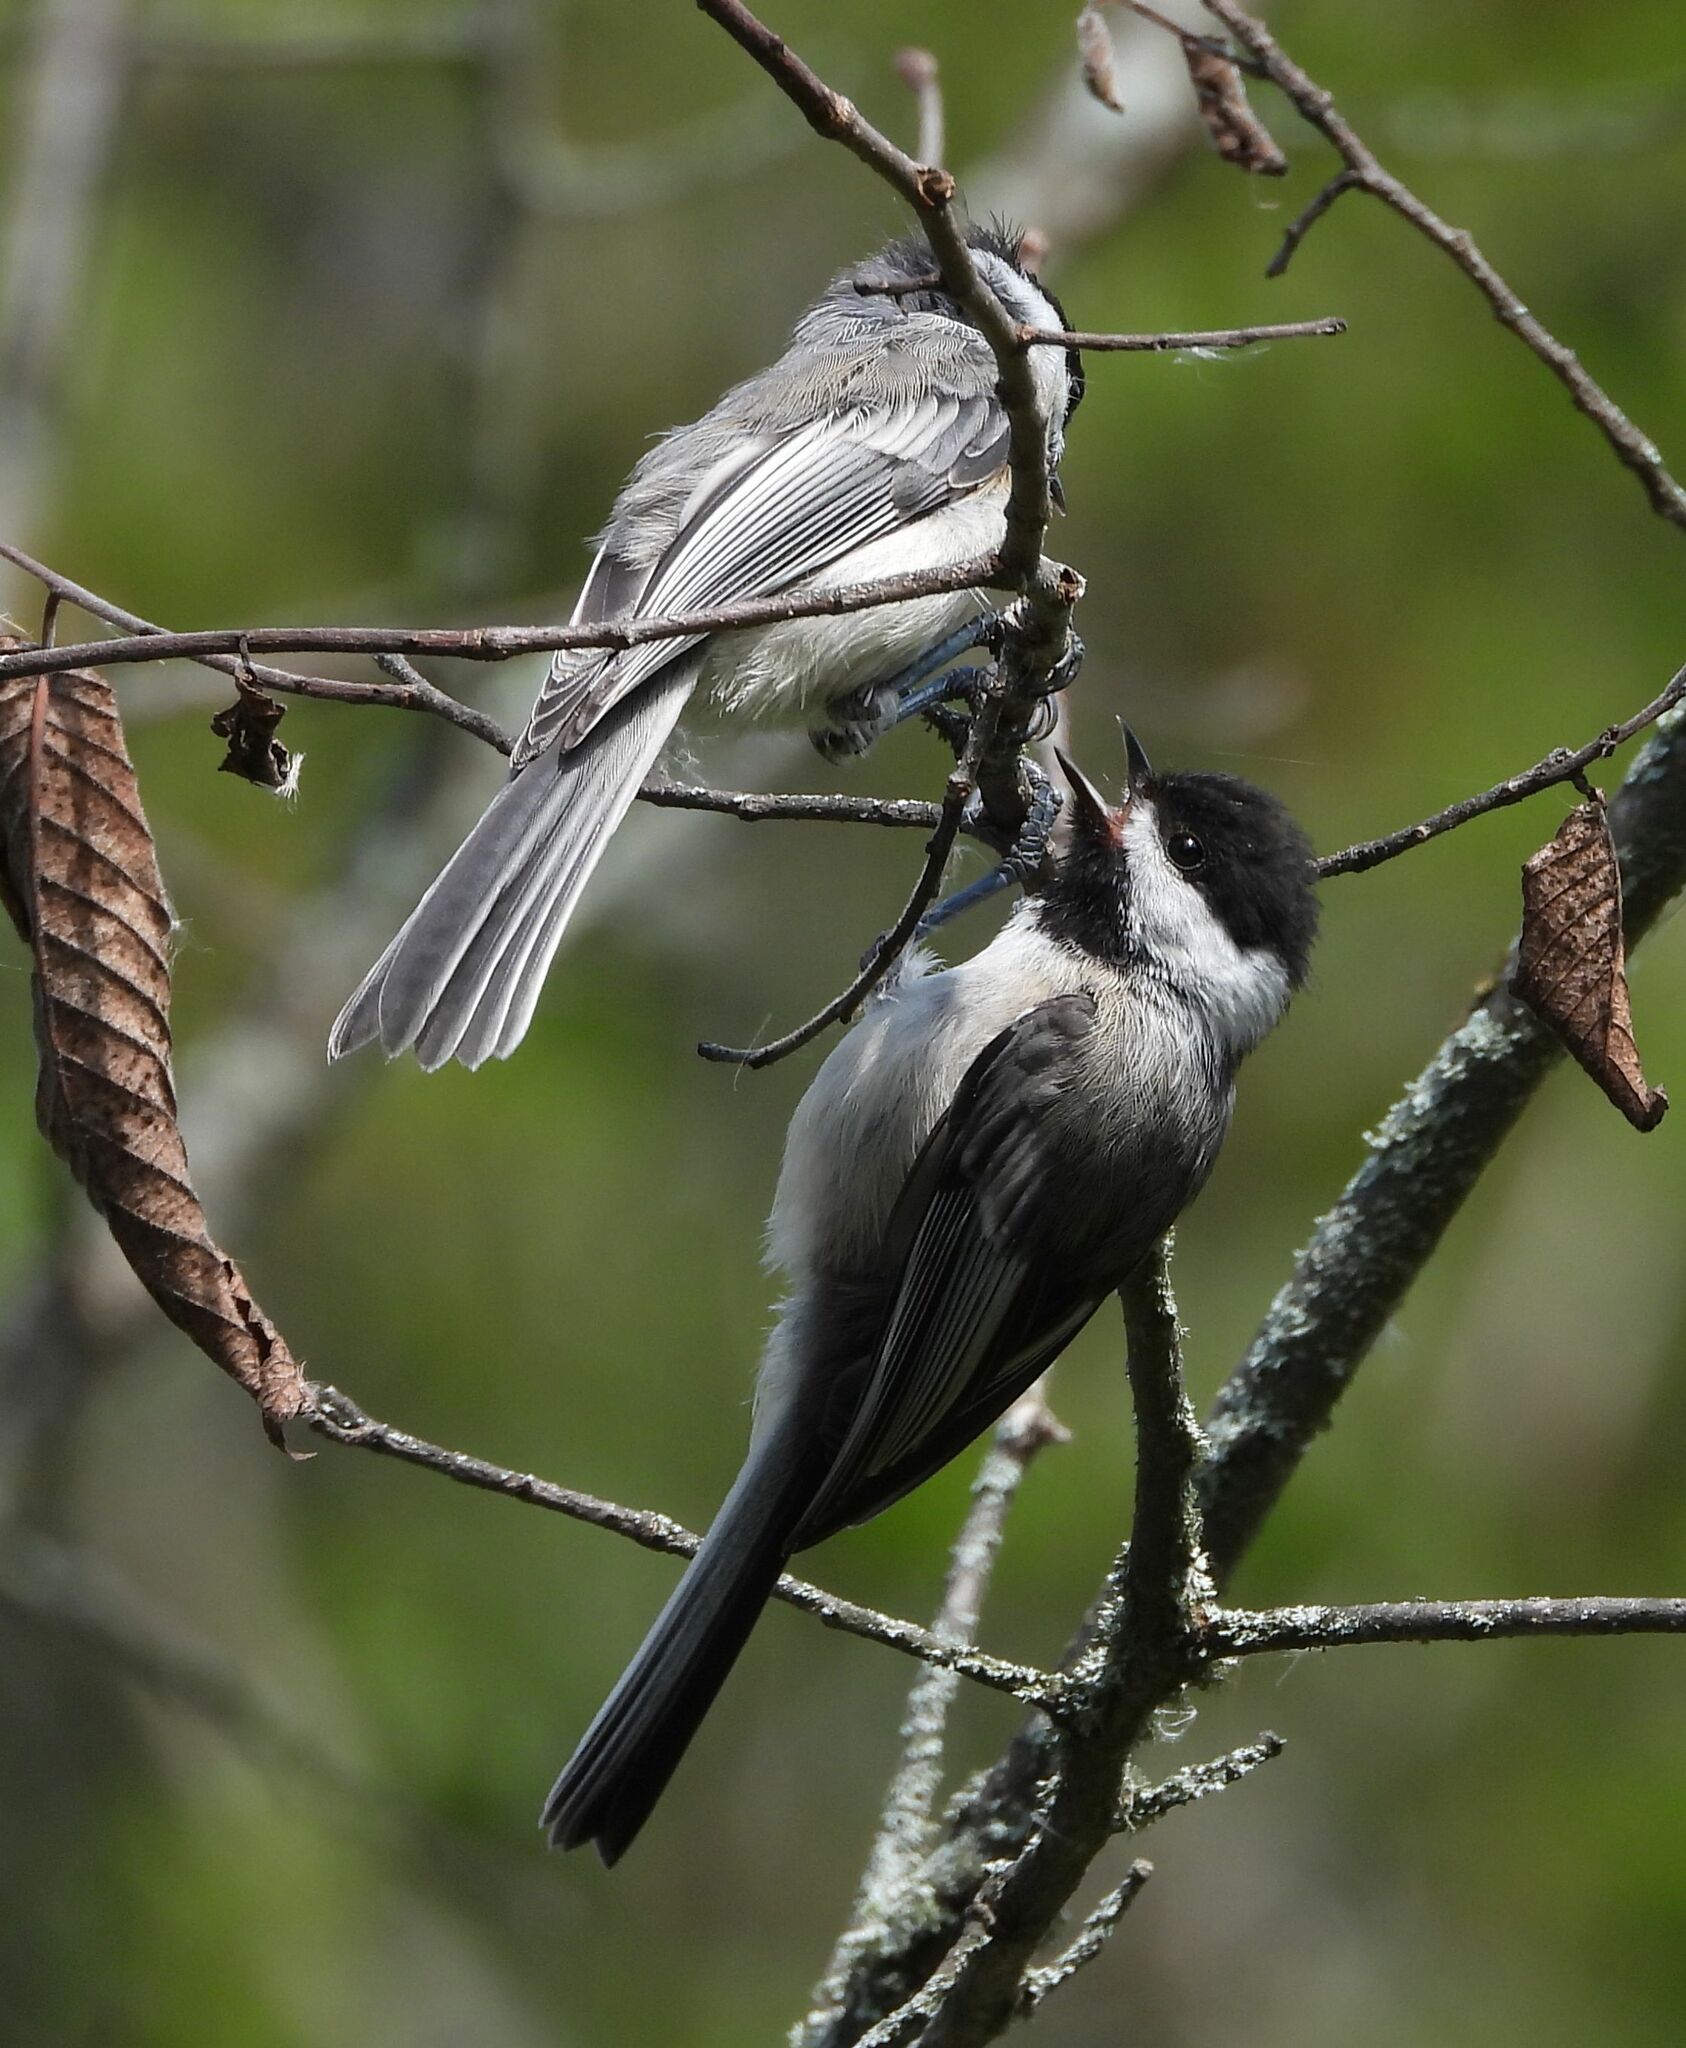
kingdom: Animalia
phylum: Chordata
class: Aves
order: Passeriformes
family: Paridae
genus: Poecile
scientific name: Poecile atricapillus
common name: Black-capped chickadee
